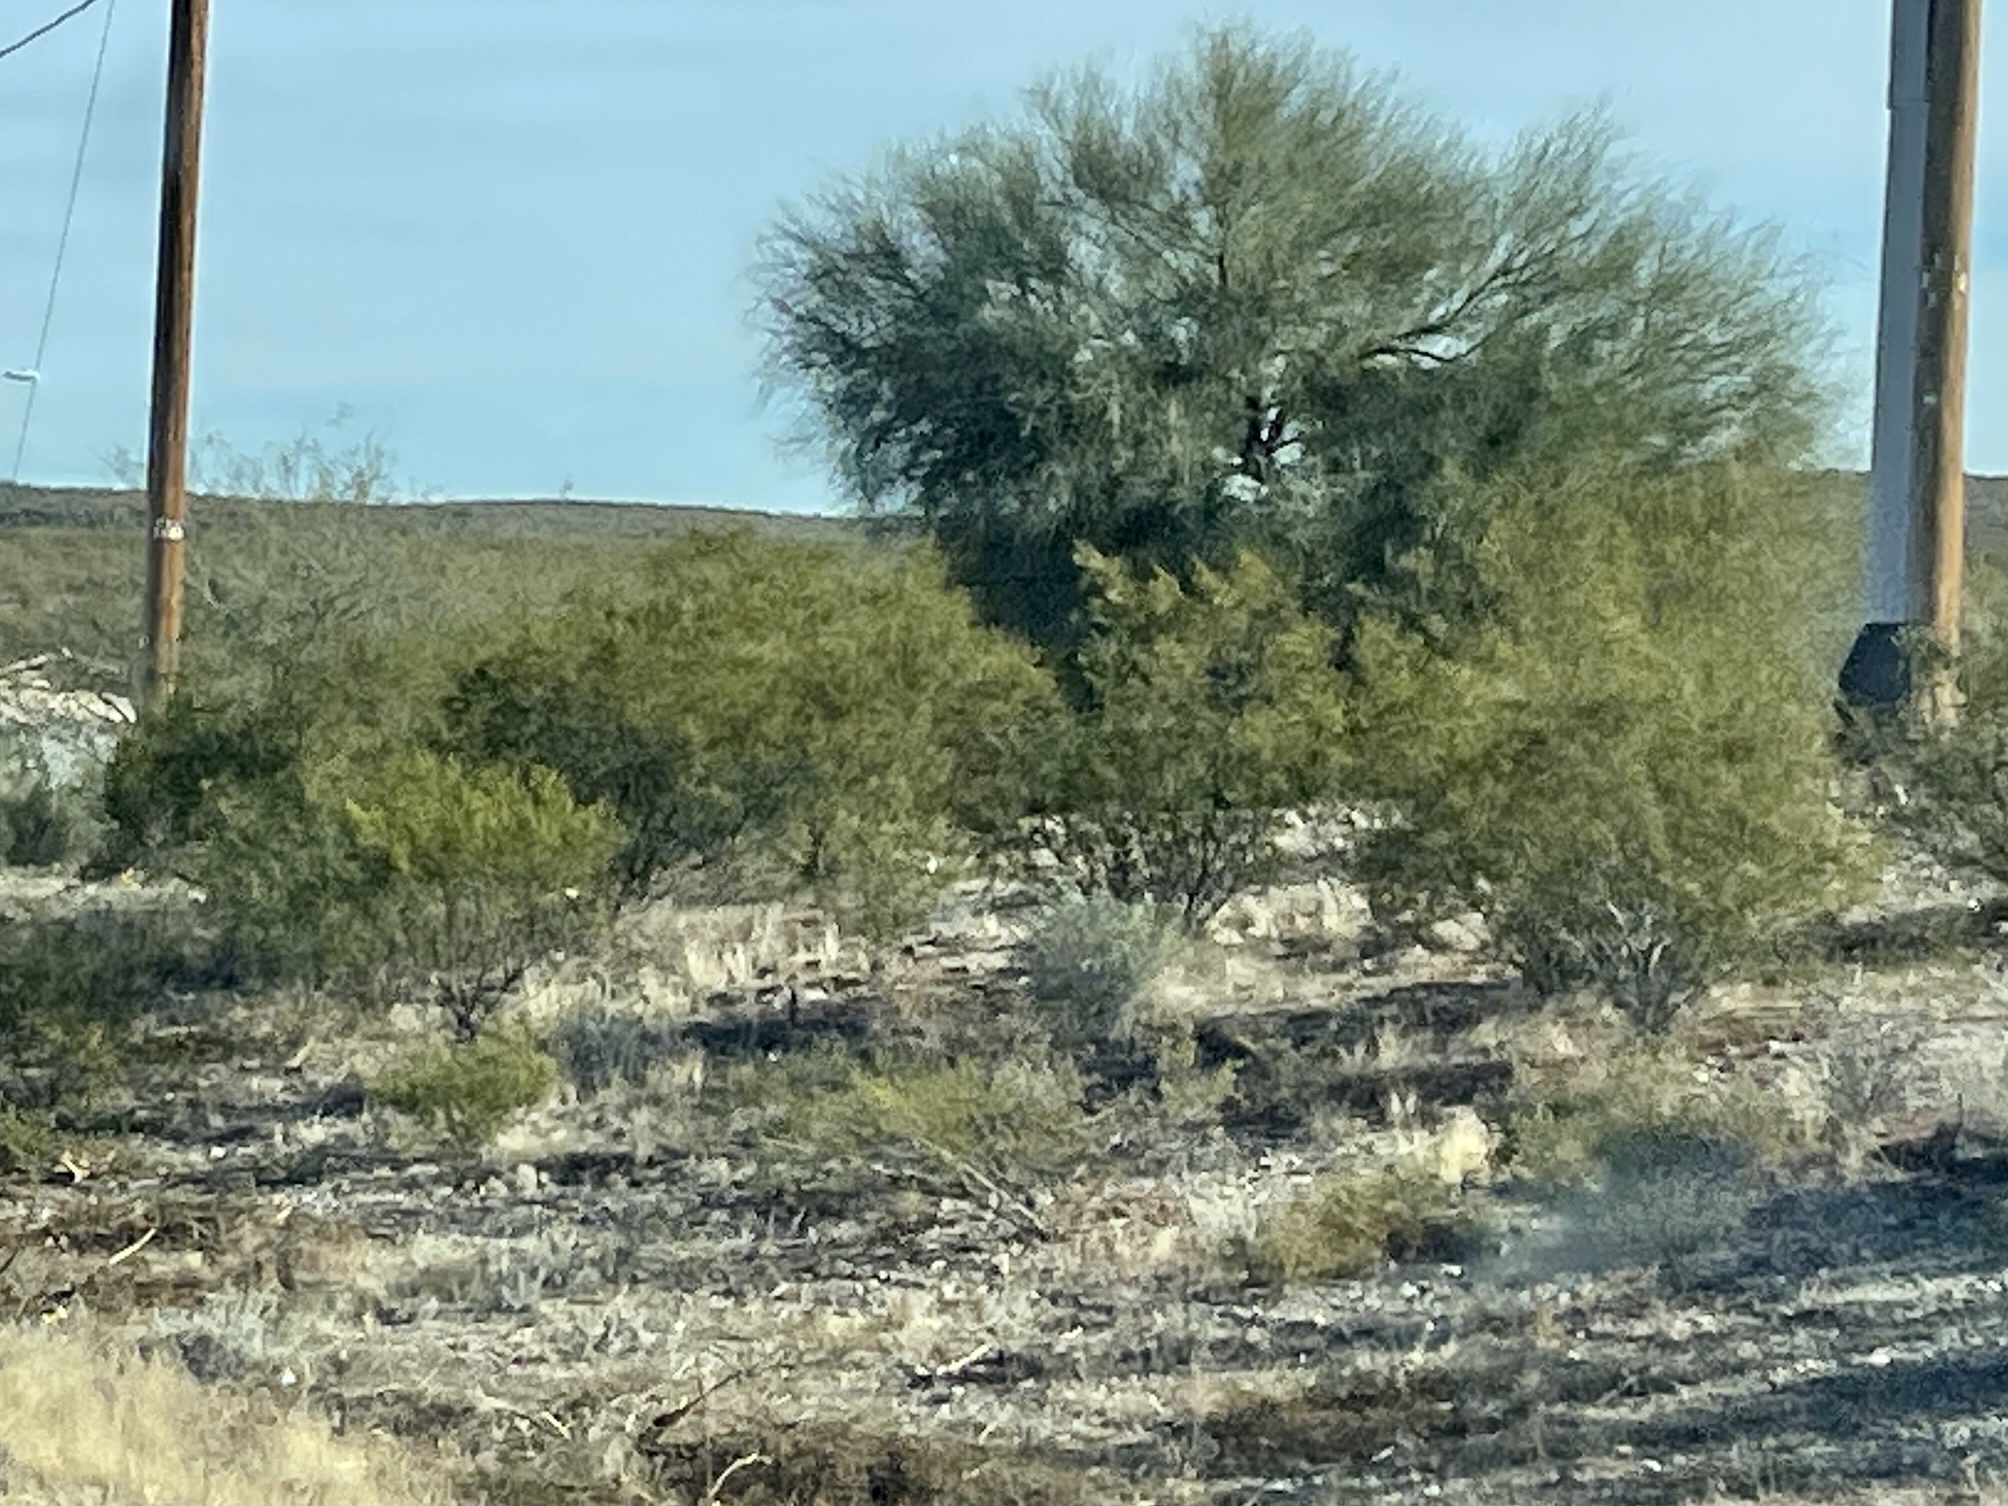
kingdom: Plantae
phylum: Tracheophyta
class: Magnoliopsida
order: Zygophyllales
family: Zygophyllaceae
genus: Larrea
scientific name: Larrea tridentata
